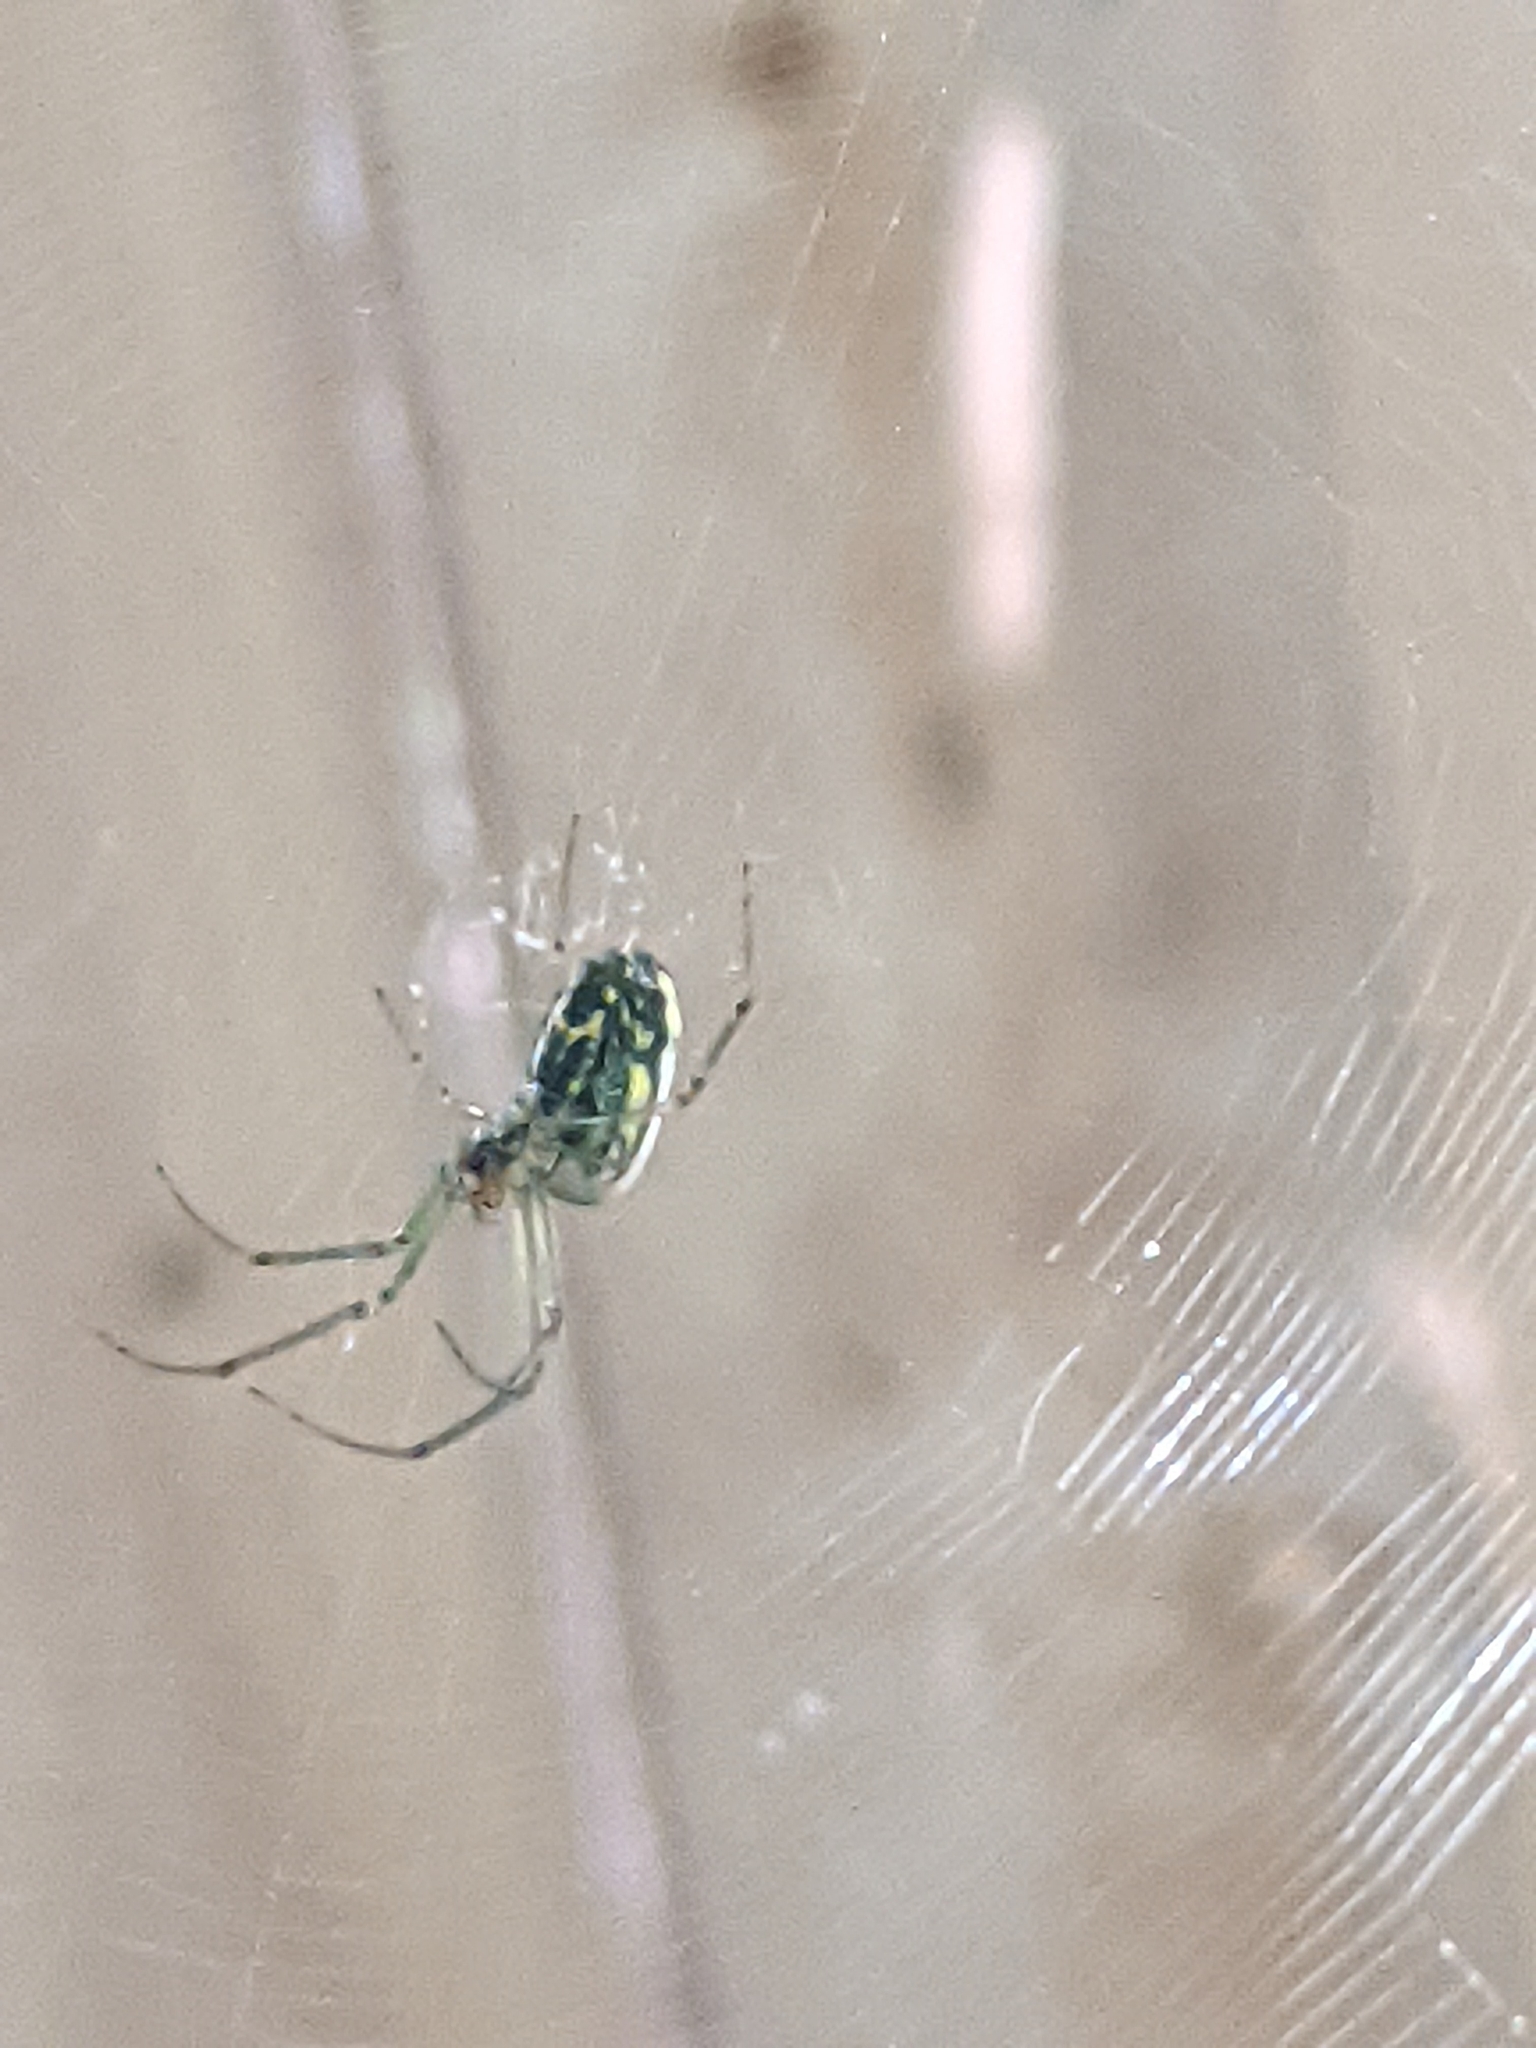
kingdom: Animalia
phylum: Arthropoda
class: Arachnida
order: Araneae
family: Tetragnathidae
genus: Leucauge
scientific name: Leucauge venusta
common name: Longjawed orb weavers
